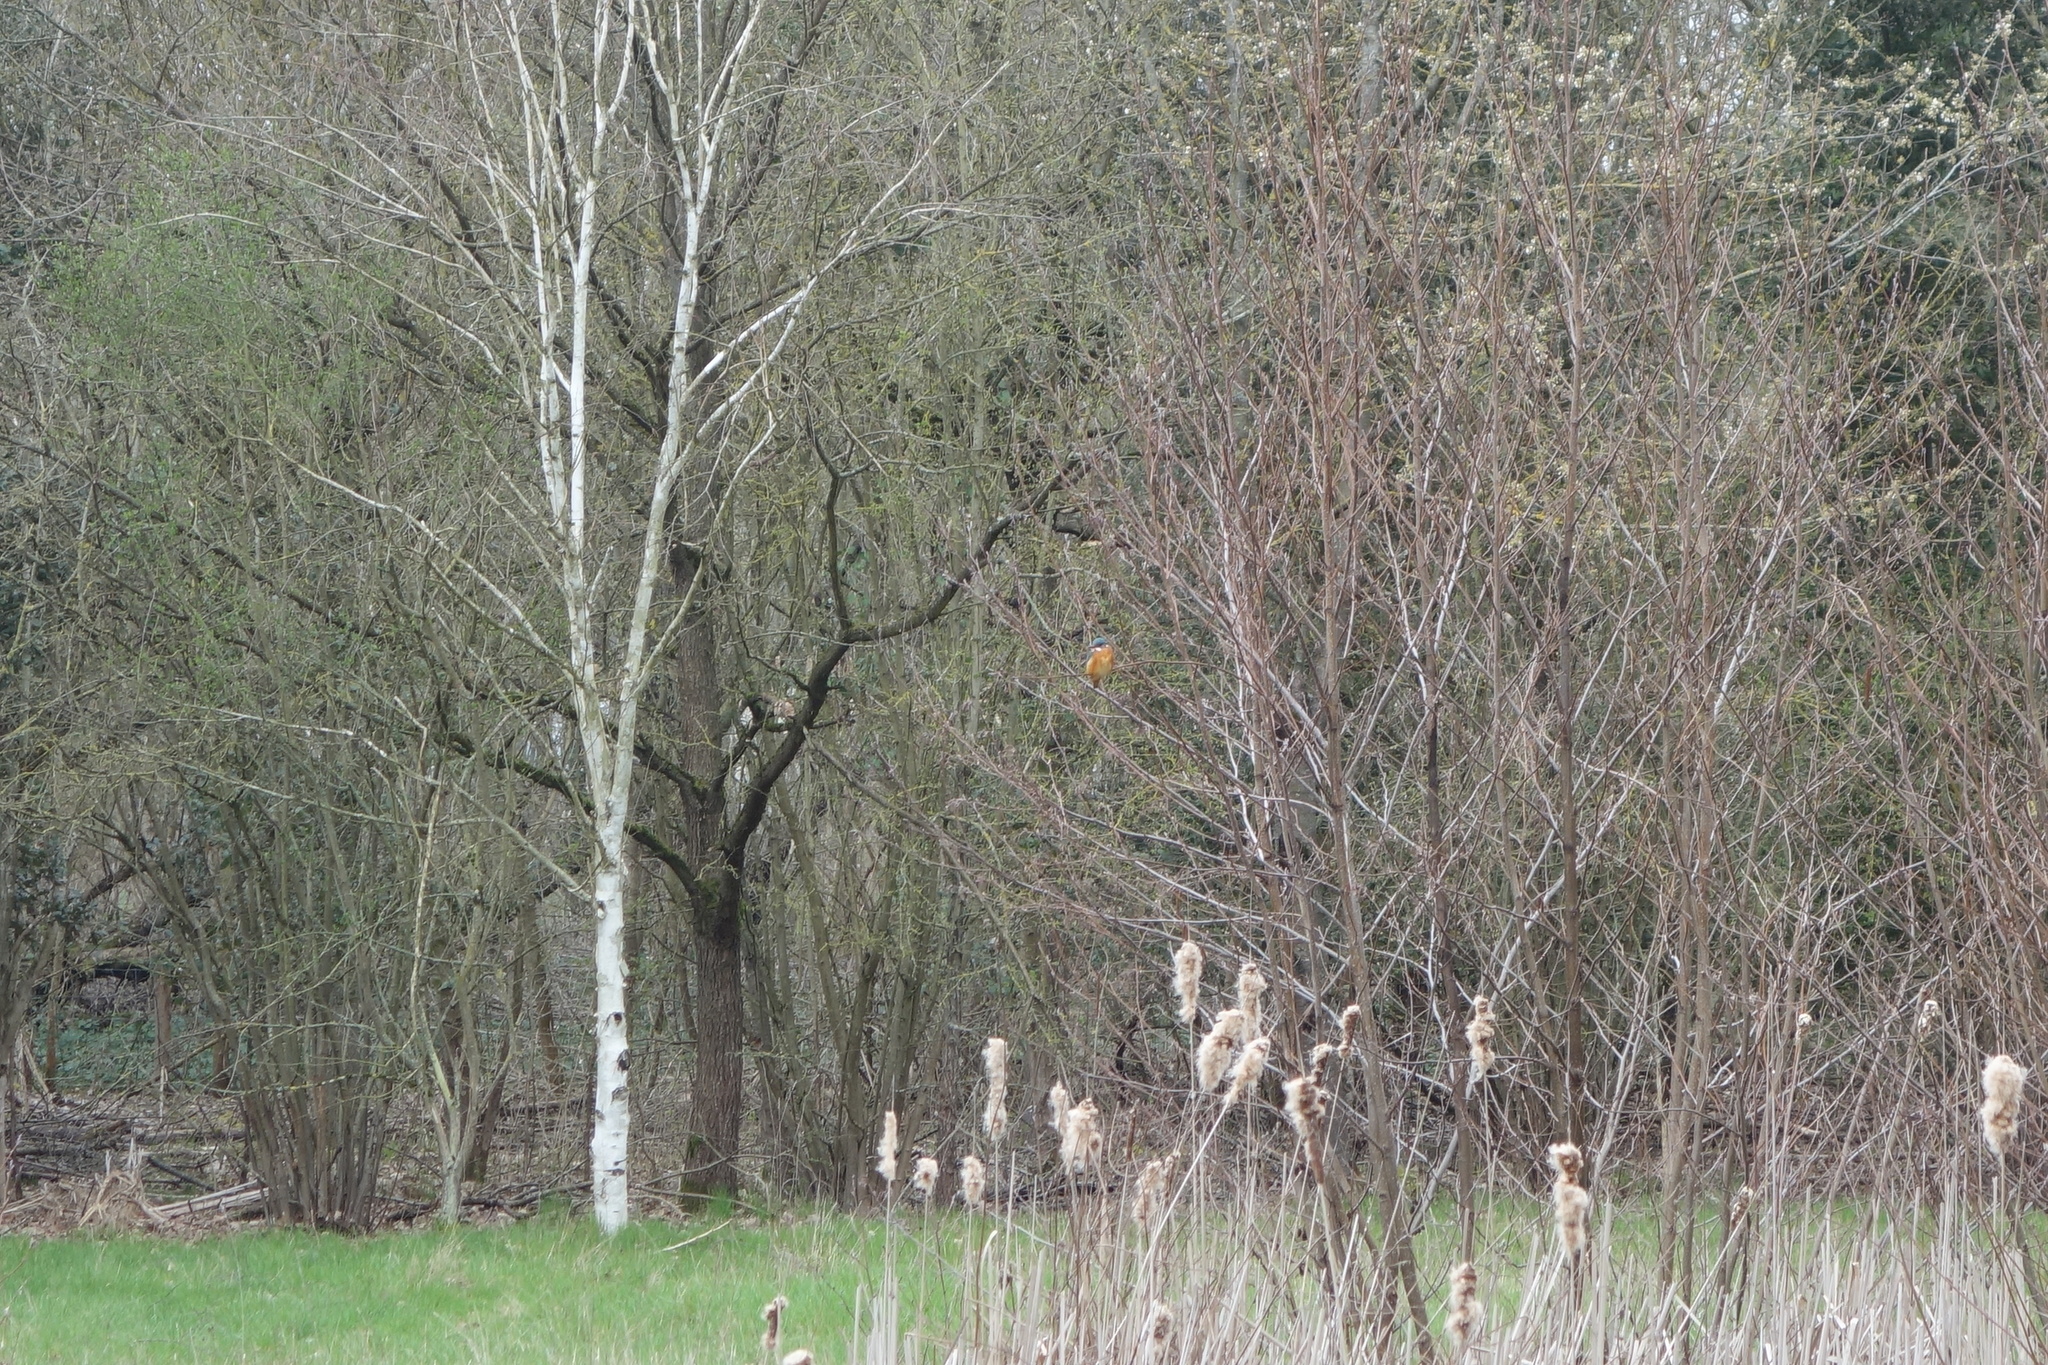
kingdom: Animalia
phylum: Chordata
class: Aves
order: Coraciiformes
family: Alcedinidae
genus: Alcedo
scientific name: Alcedo atthis
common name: Common kingfisher
